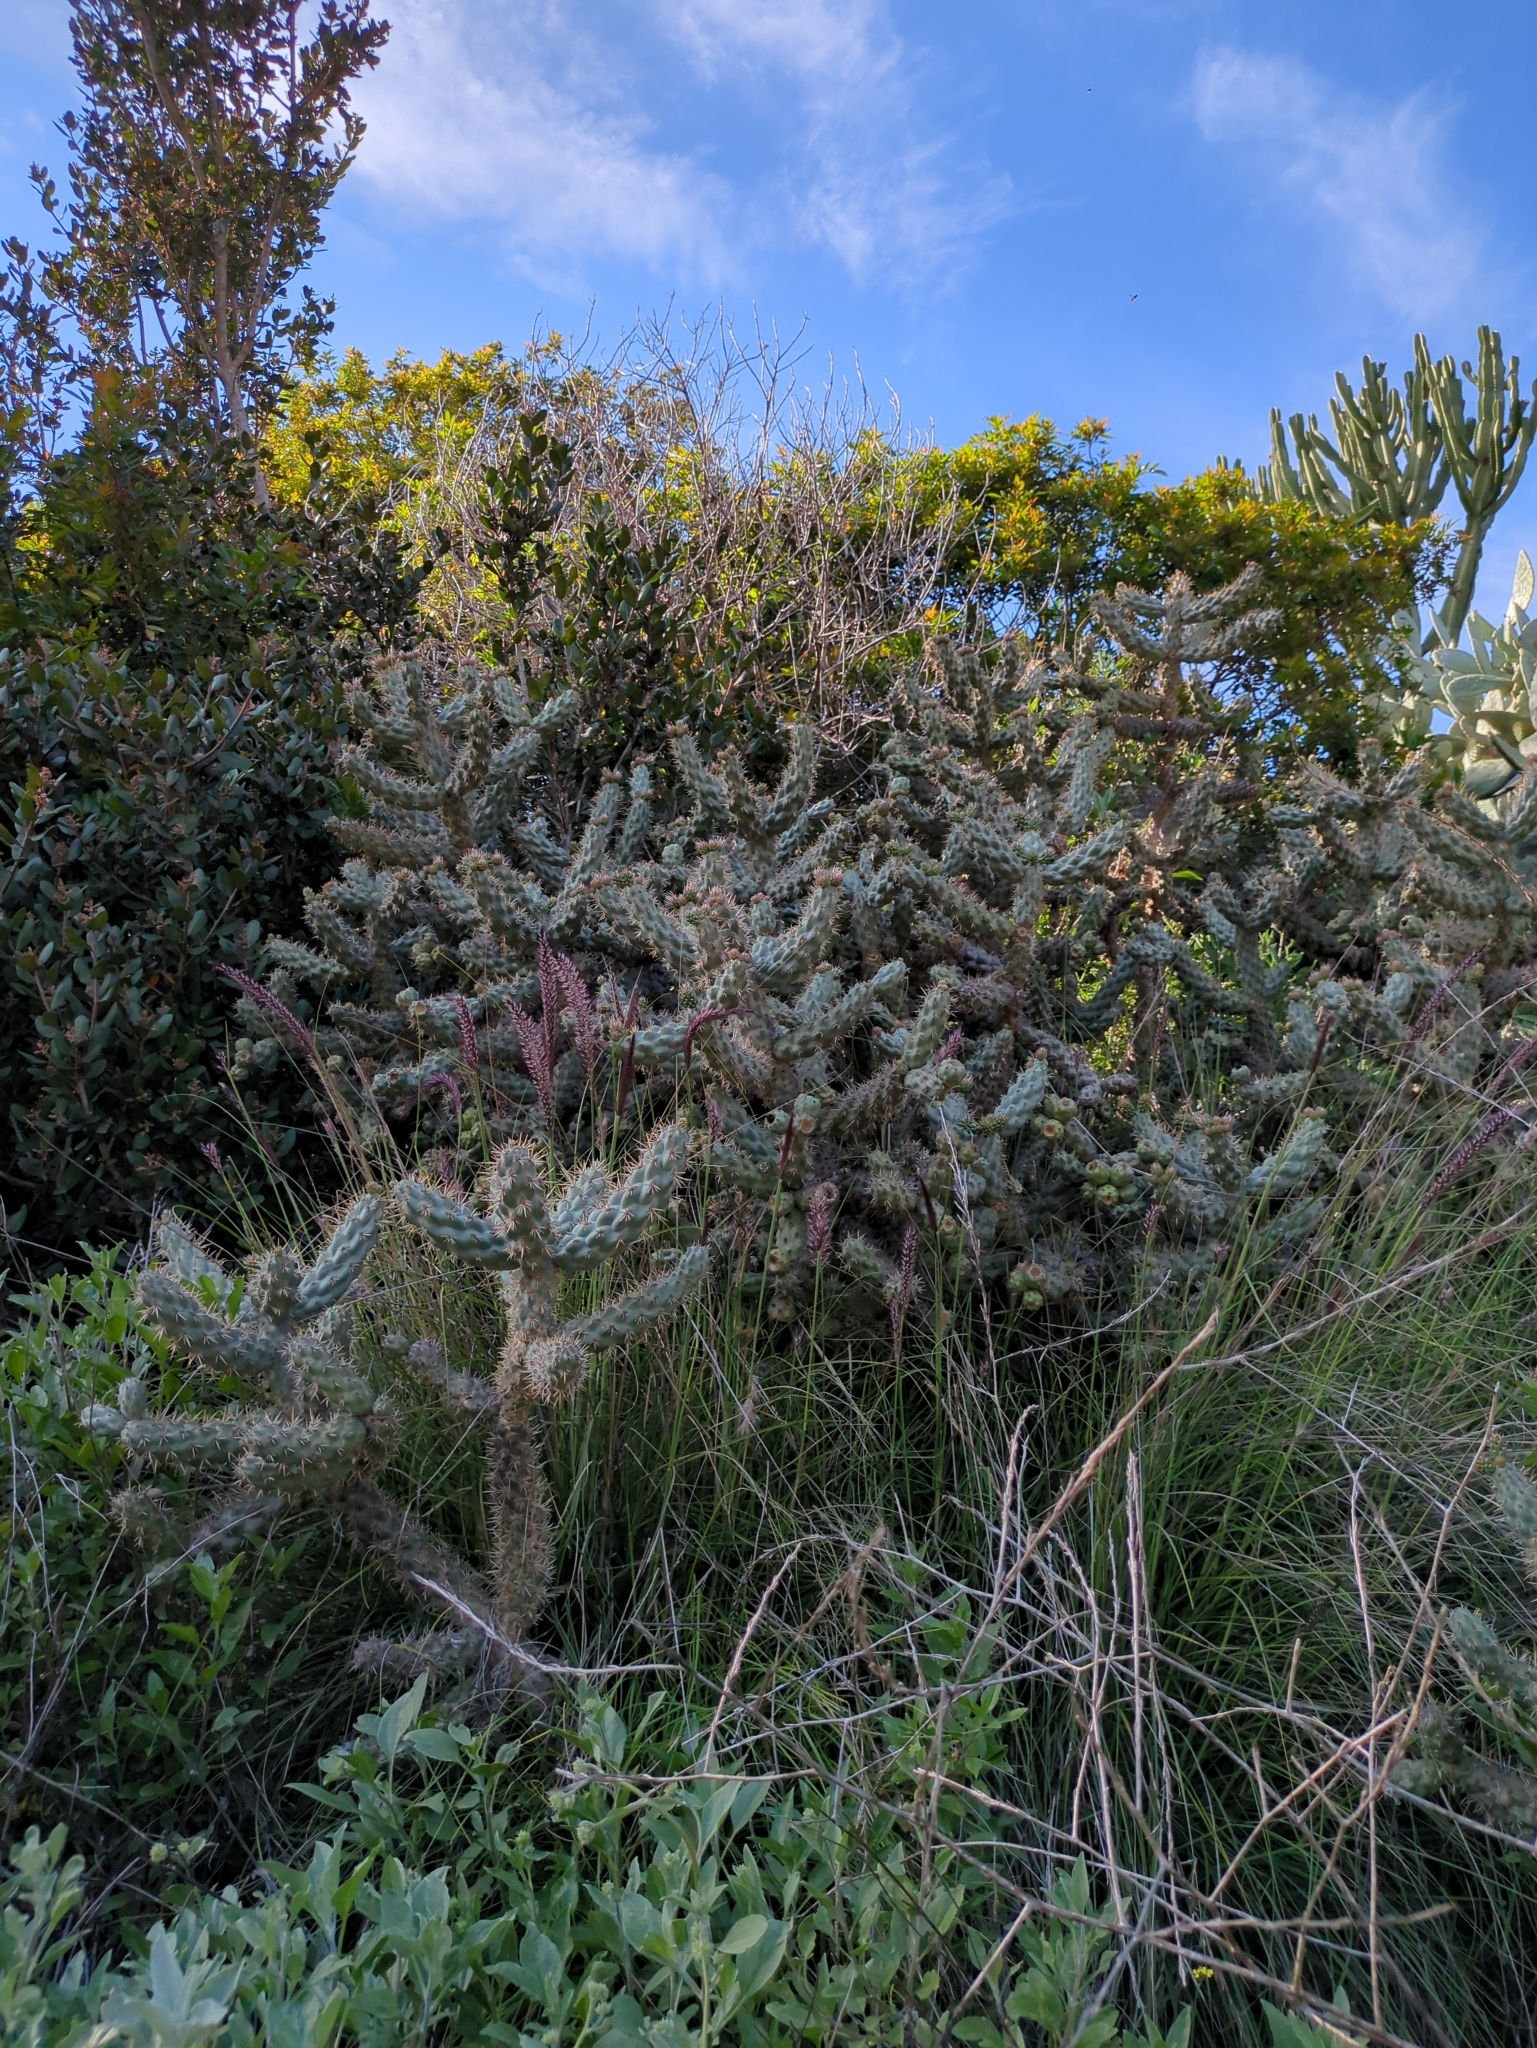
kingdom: Plantae
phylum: Tracheophyta
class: Magnoliopsida
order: Caryophyllales
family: Cactaceae
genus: Cylindropuntia
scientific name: Cylindropuntia prolifera
